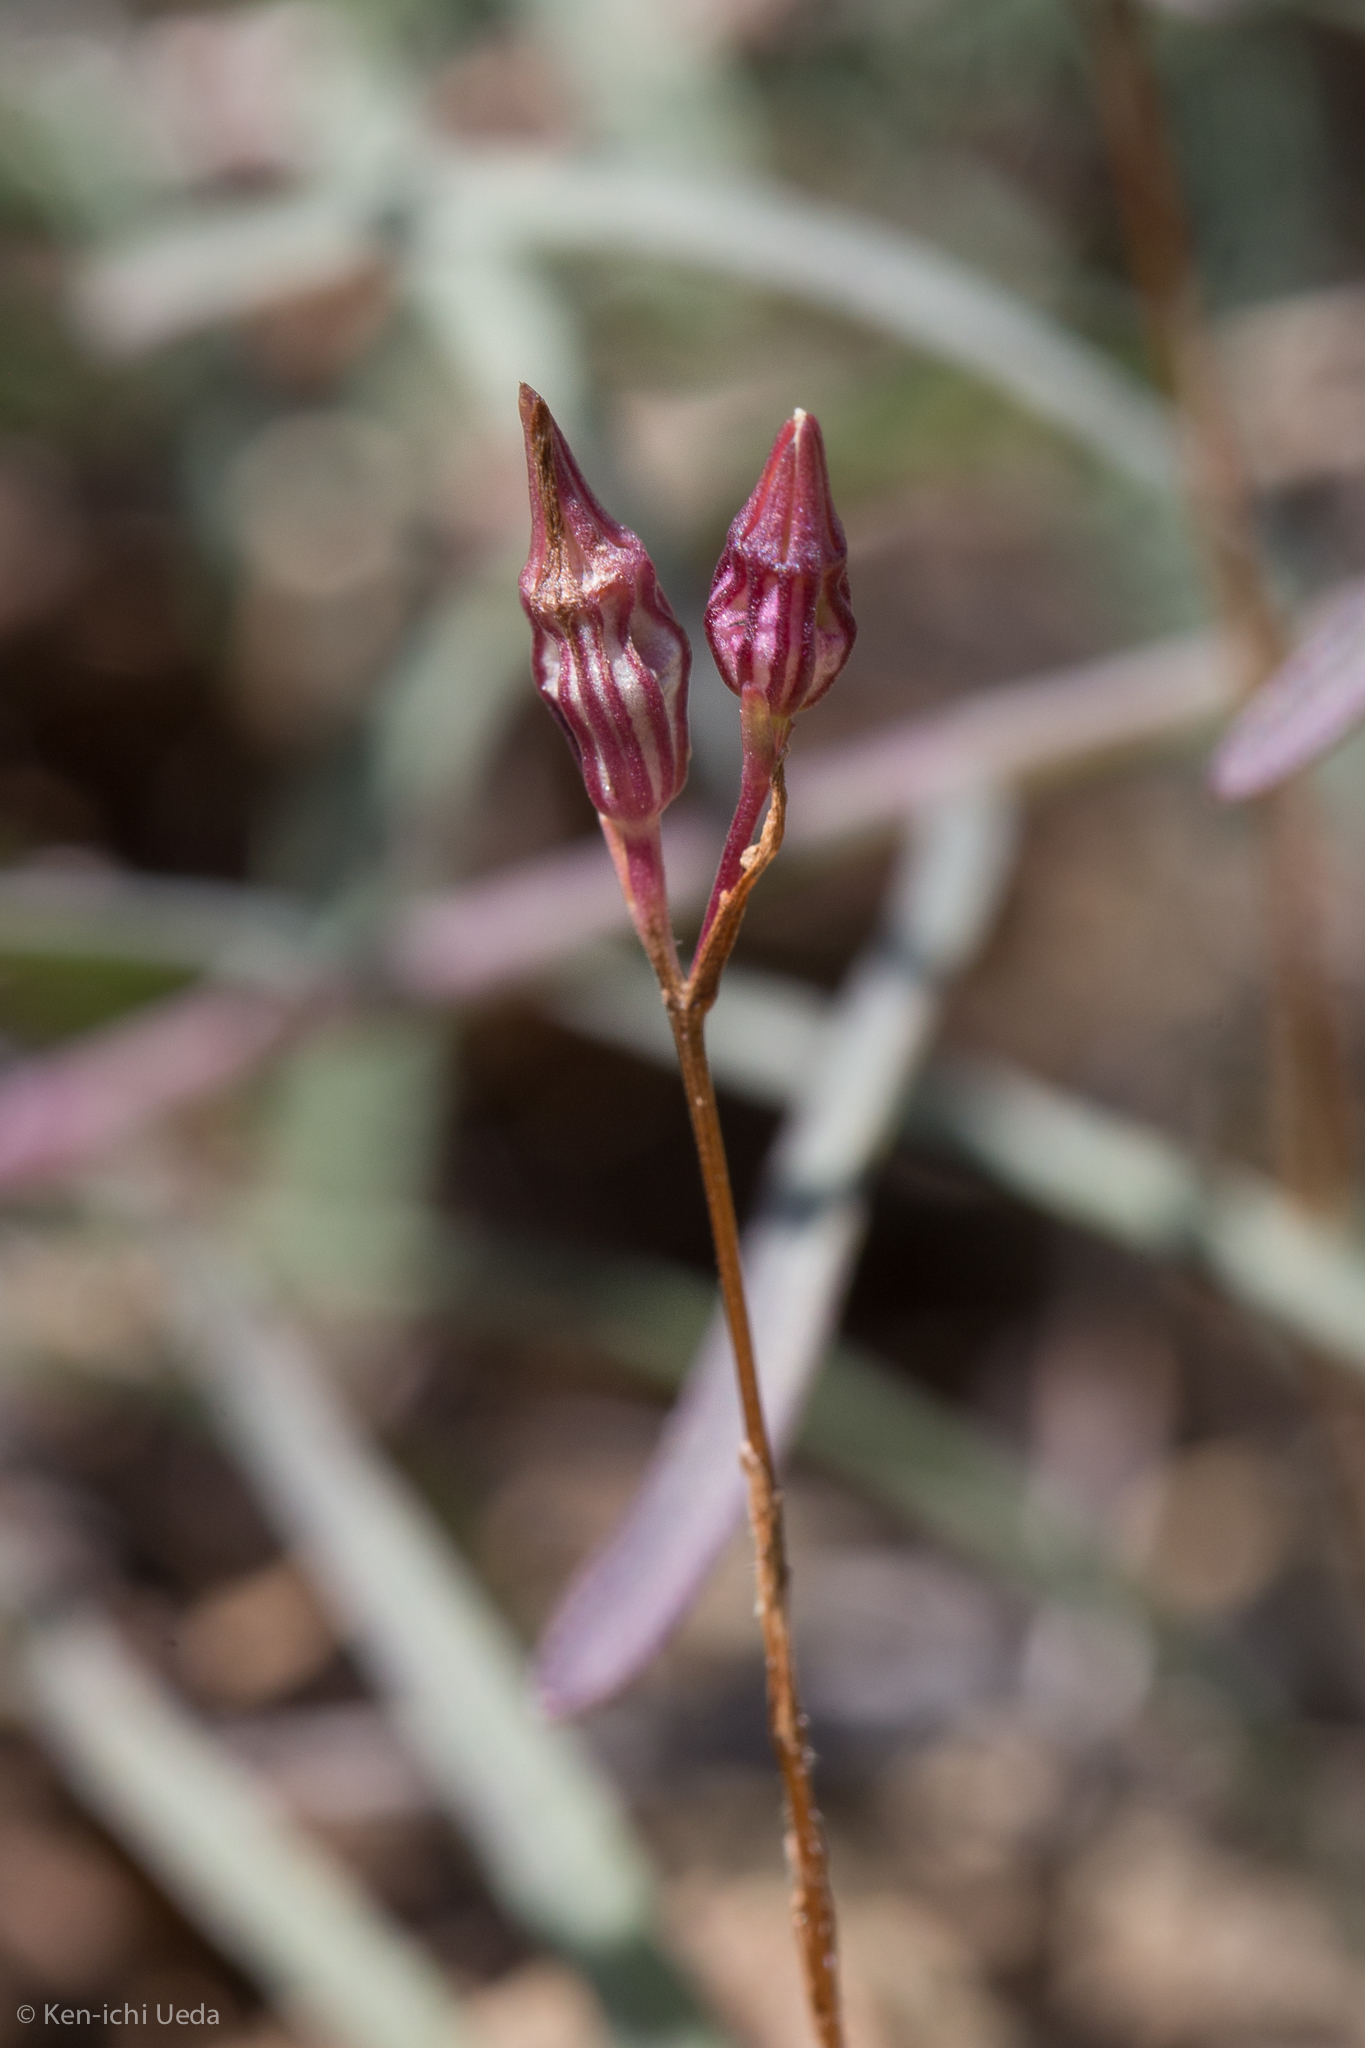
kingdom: Plantae
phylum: Tracheophyta
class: Magnoliopsida
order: Asterales
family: Campanulaceae
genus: Ravenella
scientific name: Ravenella griffinii
